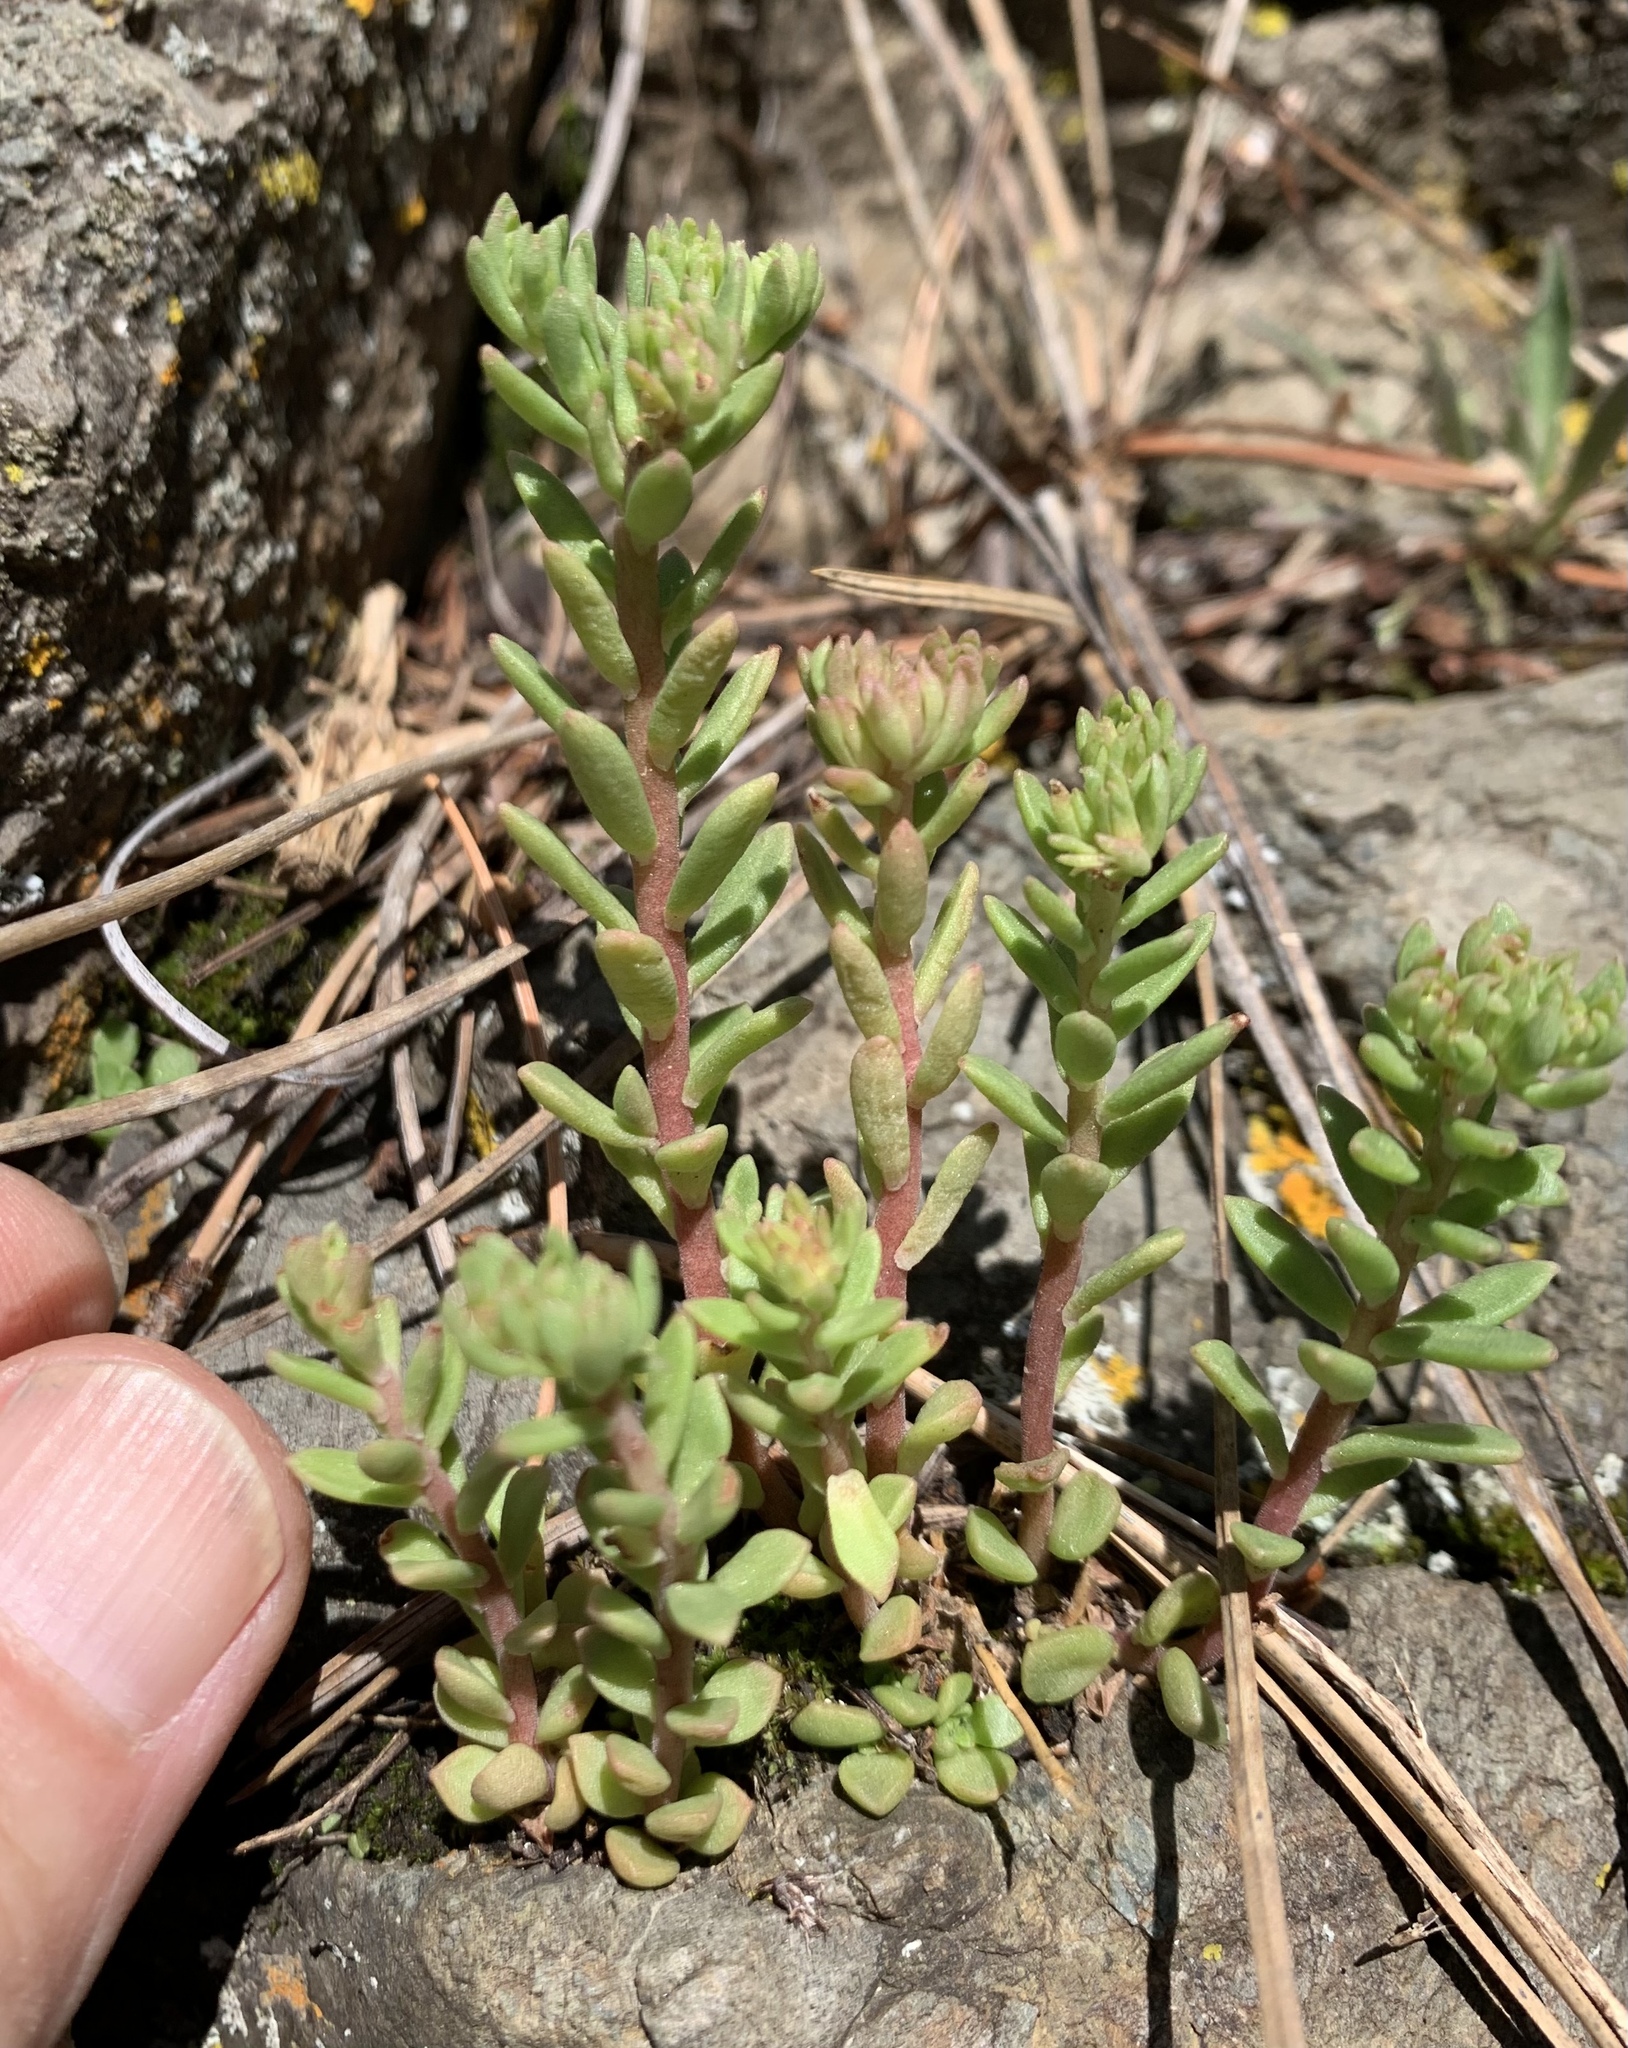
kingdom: Plantae
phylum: Tracheophyta
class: Magnoliopsida
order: Saxifragales
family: Crassulaceae
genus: Sedum
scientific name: Sedum cockerellii
